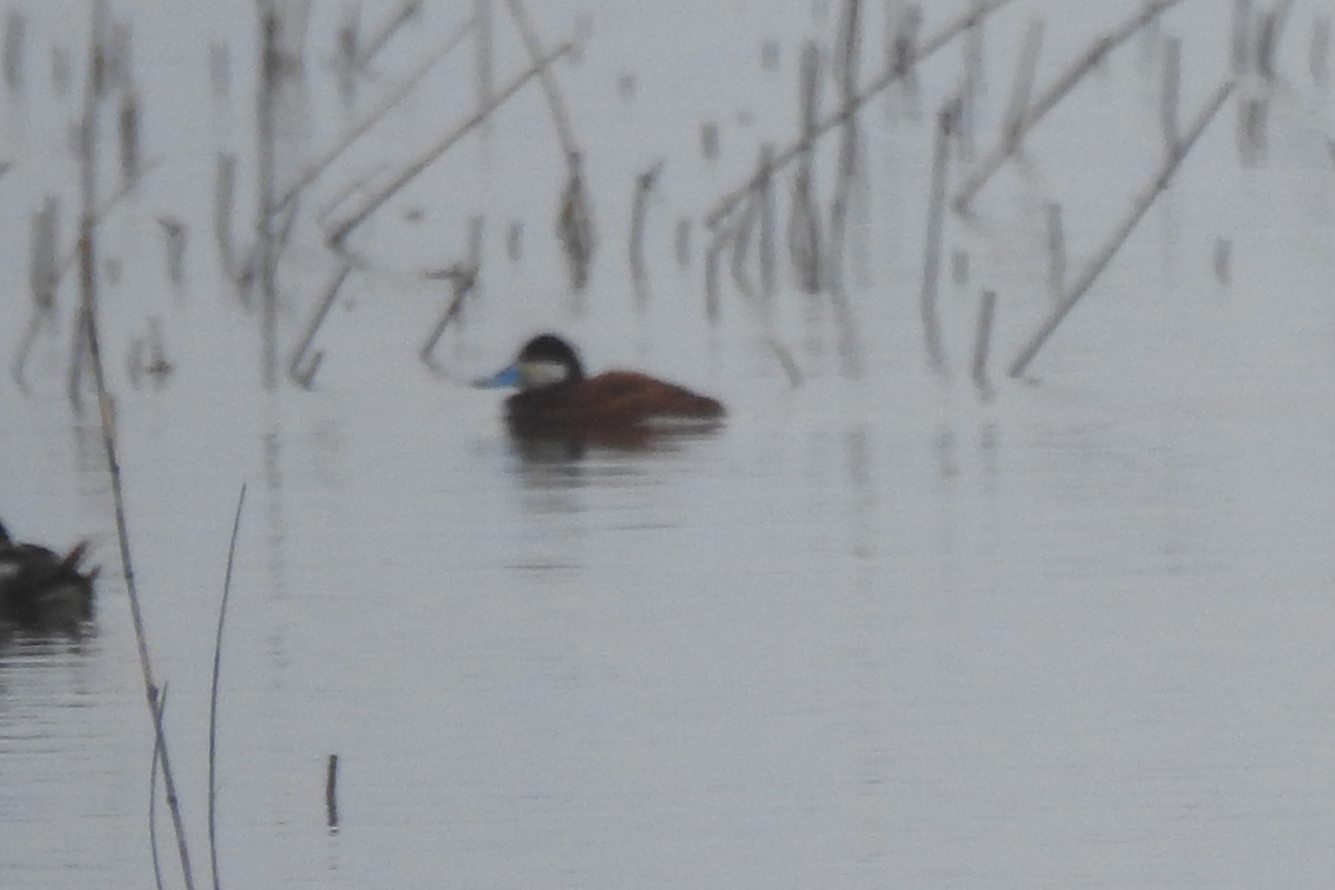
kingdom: Animalia
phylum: Chordata
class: Aves
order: Anseriformes
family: Anatidae
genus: Oxyura
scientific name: Oxyura jamaicensis
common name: Ruddy duck
